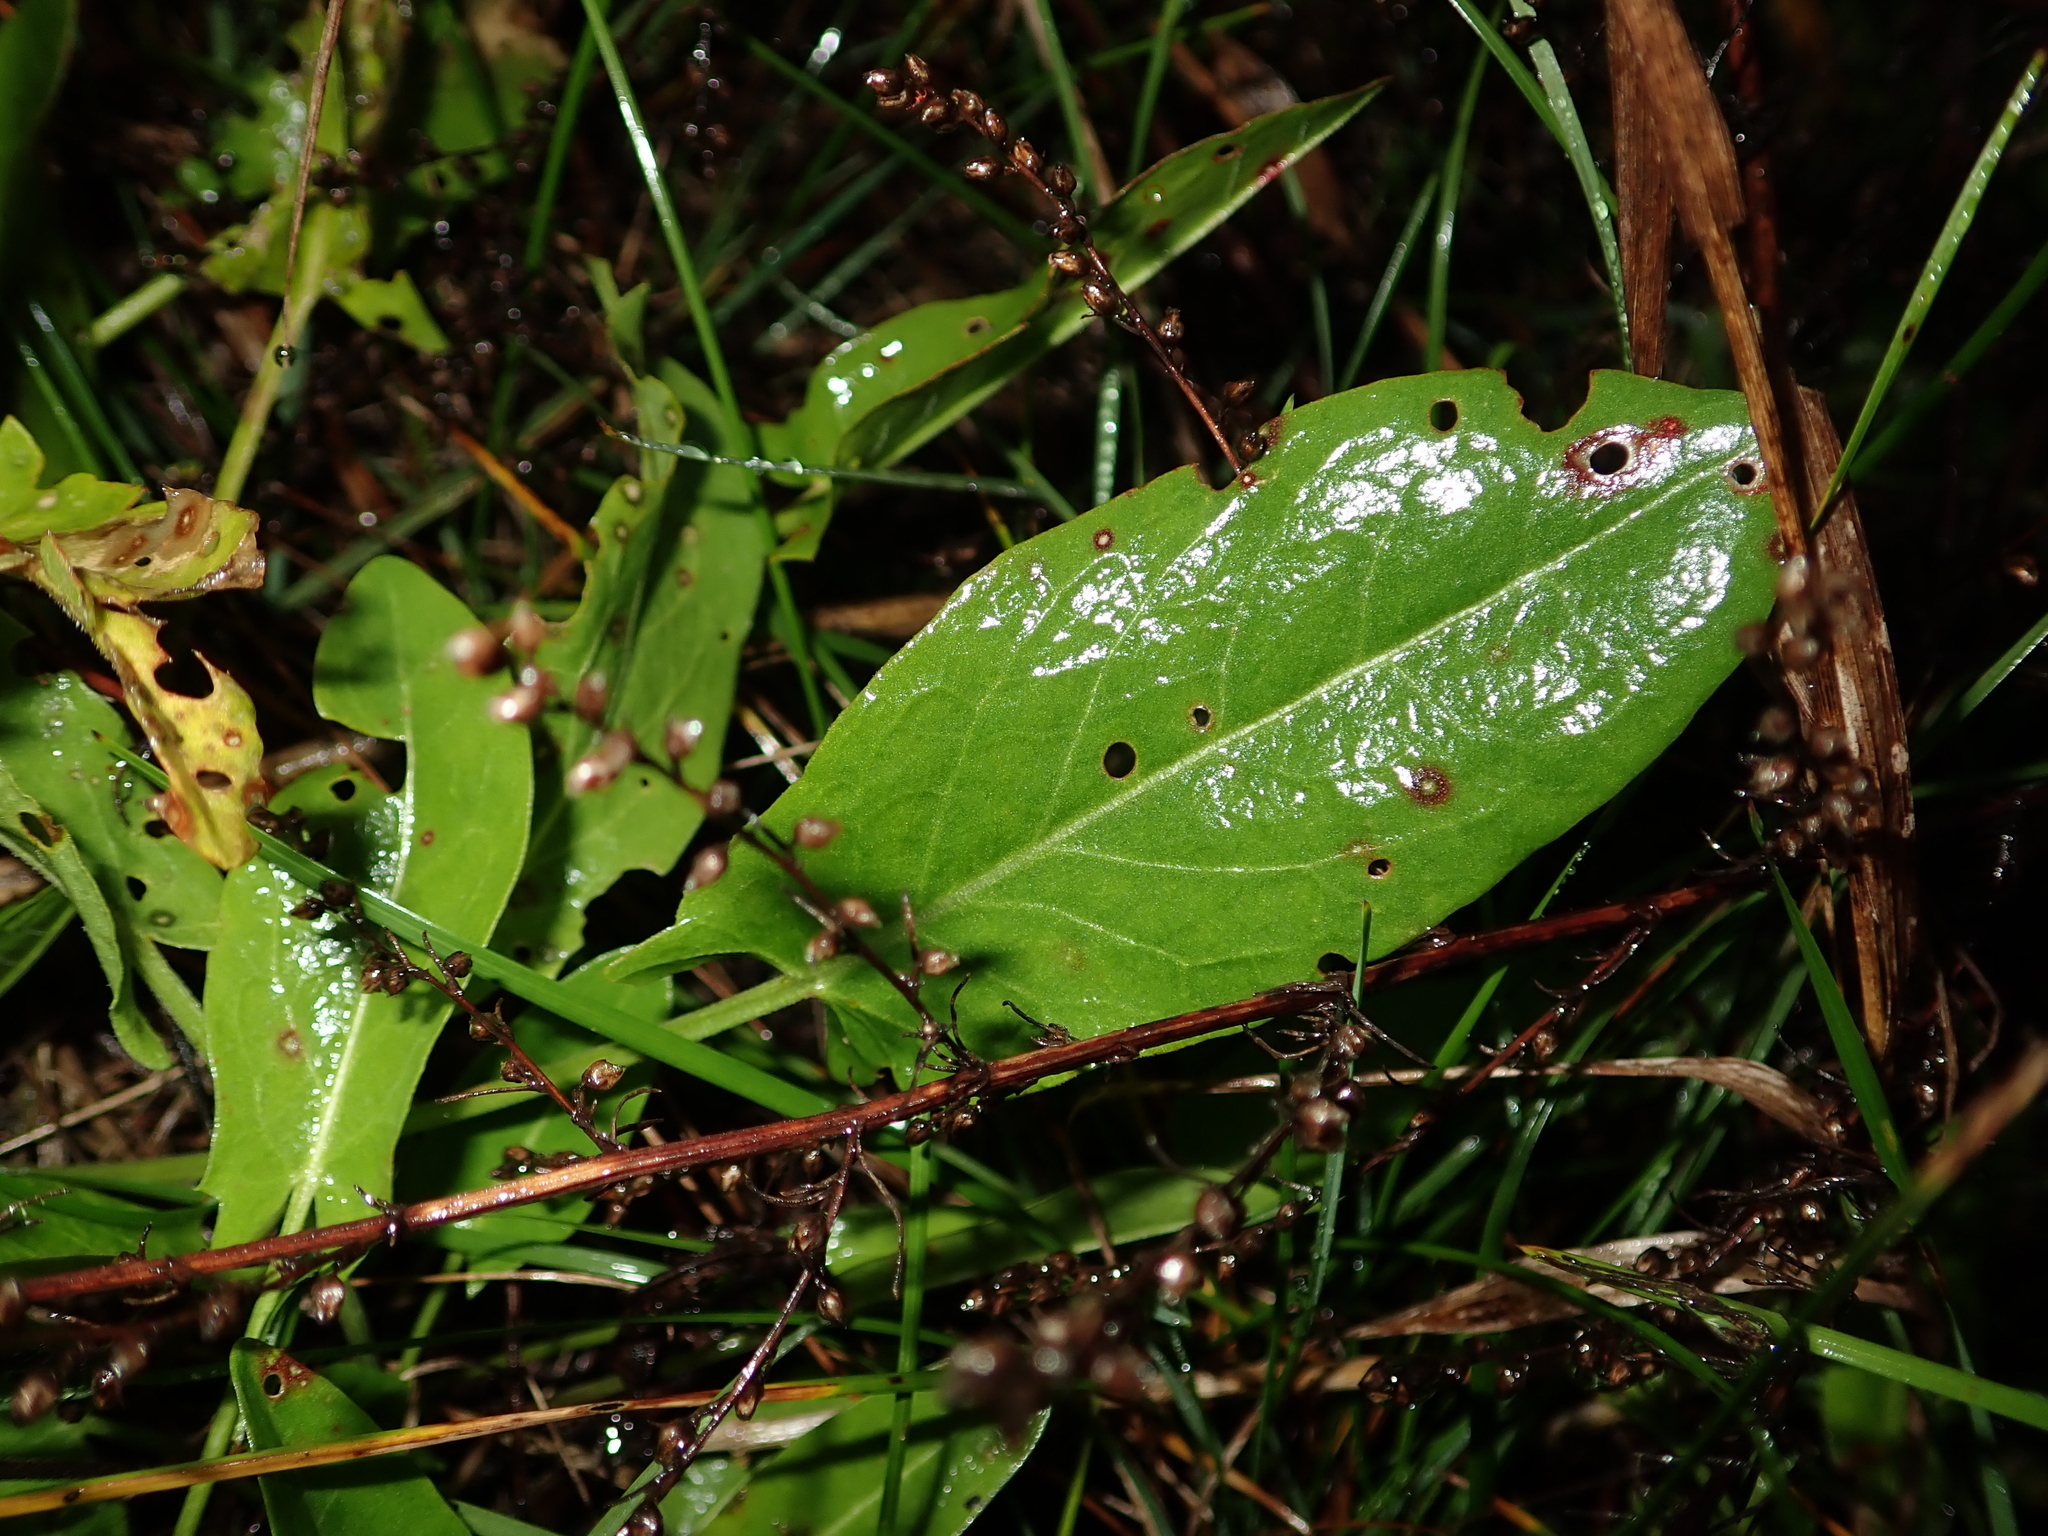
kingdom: Plantae
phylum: Tracheophyta
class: Magnoliopsida
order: Caryophyllales
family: Polygonaceae
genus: Rumex
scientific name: Rumex acetosa
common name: Garden sorrel
